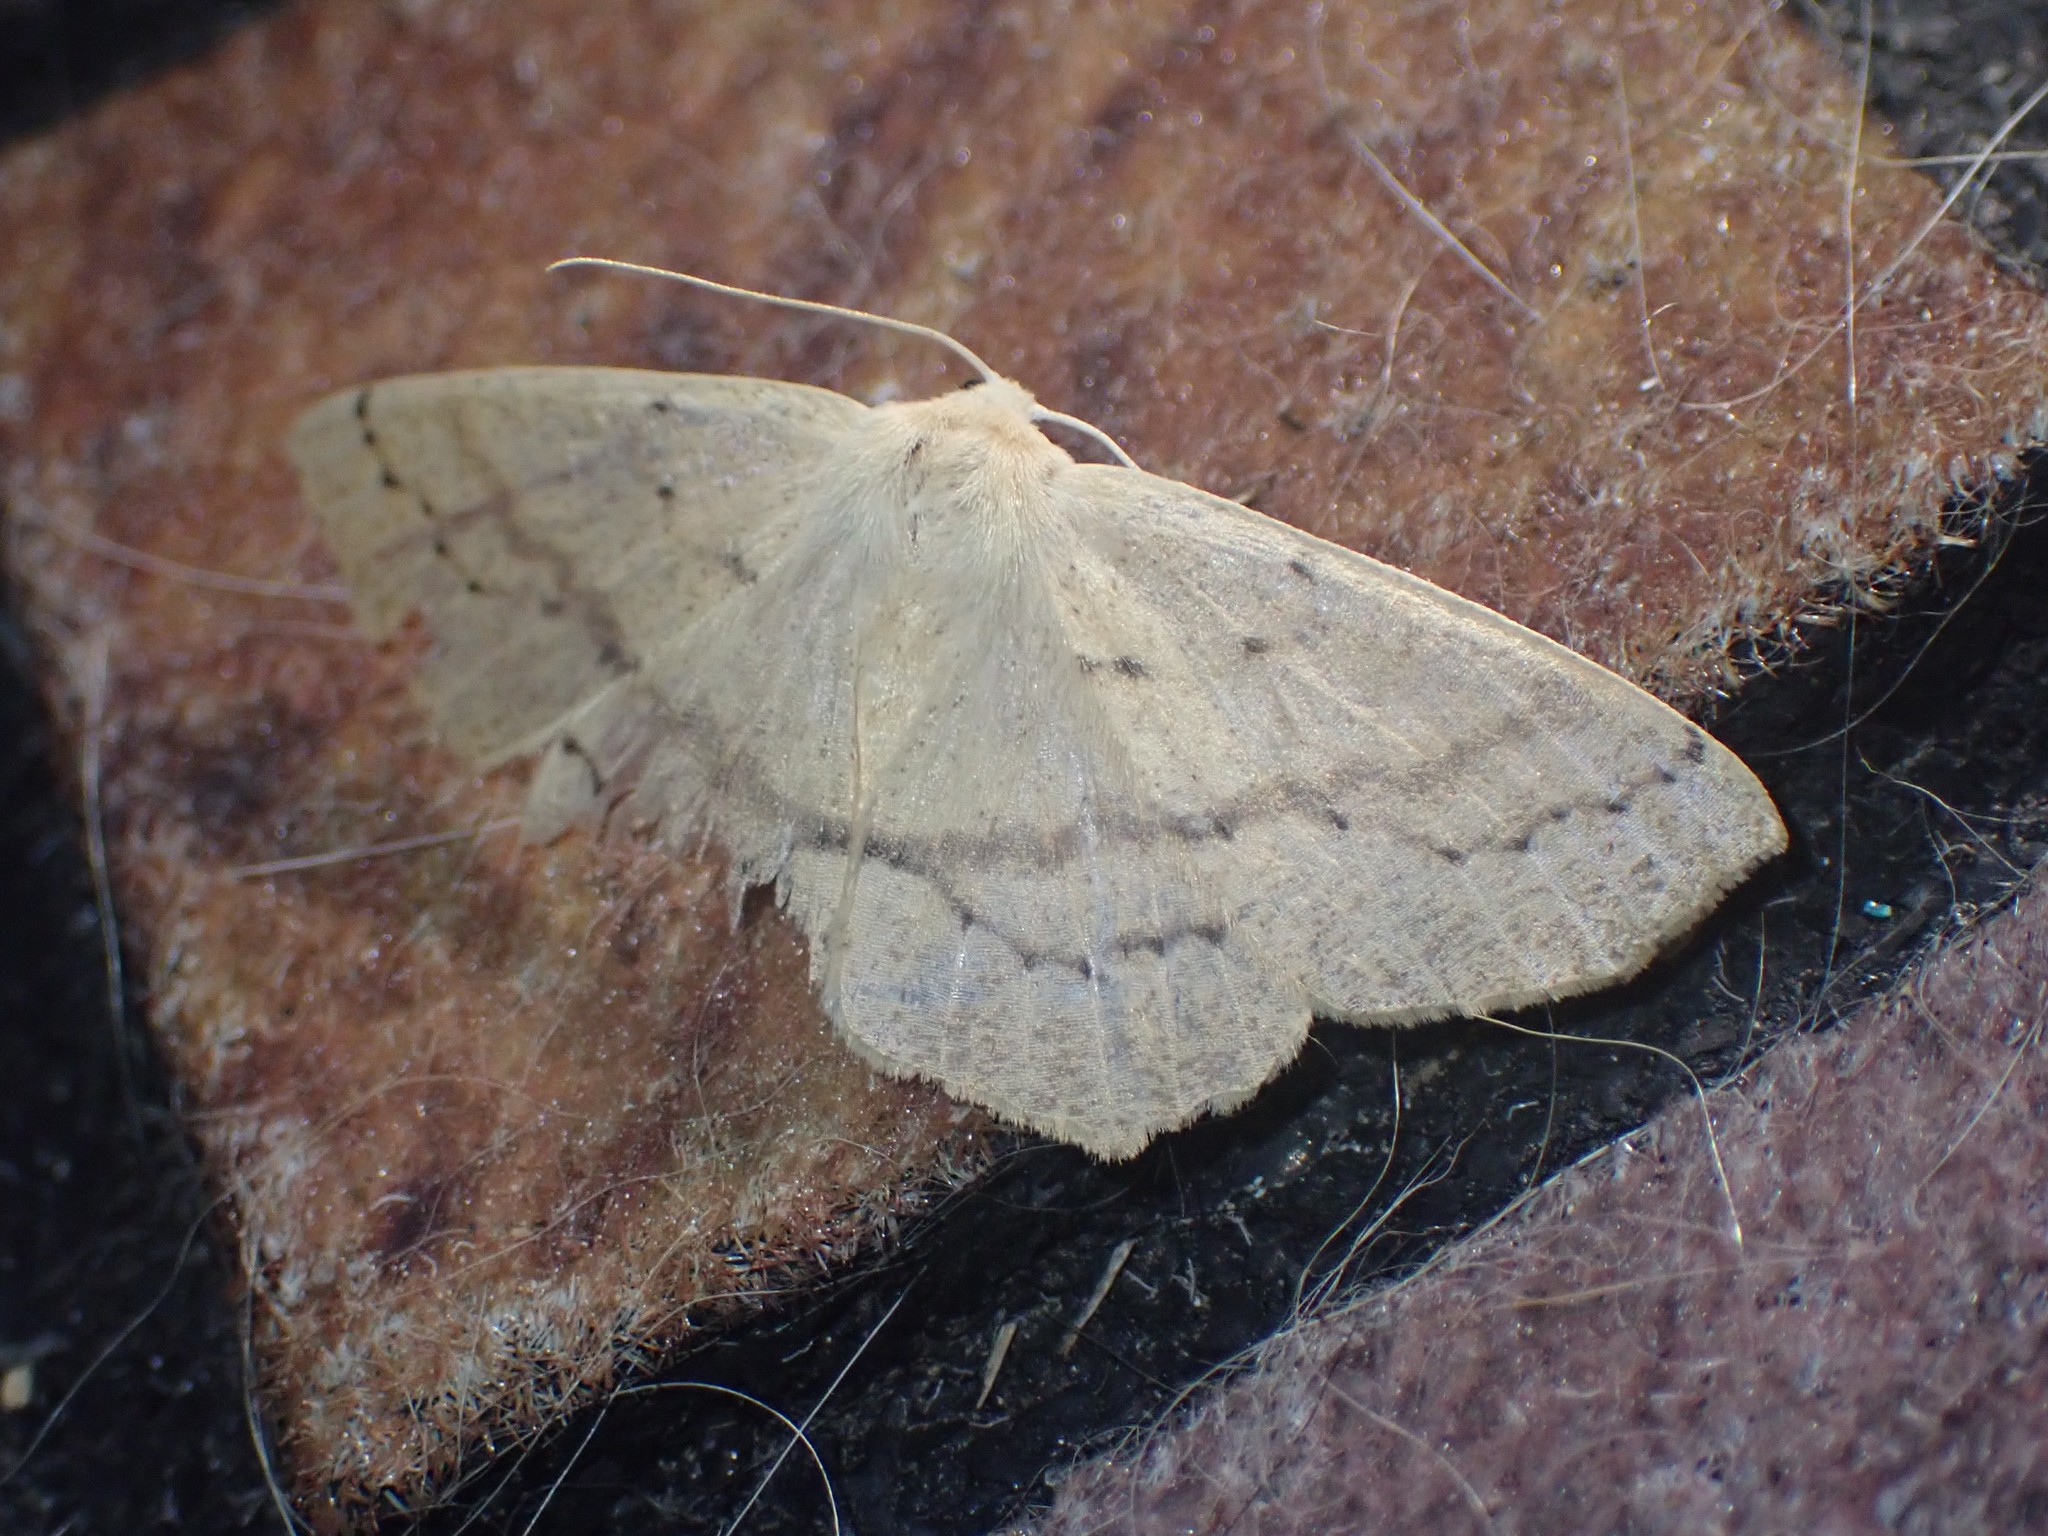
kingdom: Animalia
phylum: Arthropoda
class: Insecta
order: Lepidoptera
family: Geometridae
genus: Sabulodes
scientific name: Sabulodes aegrotata
